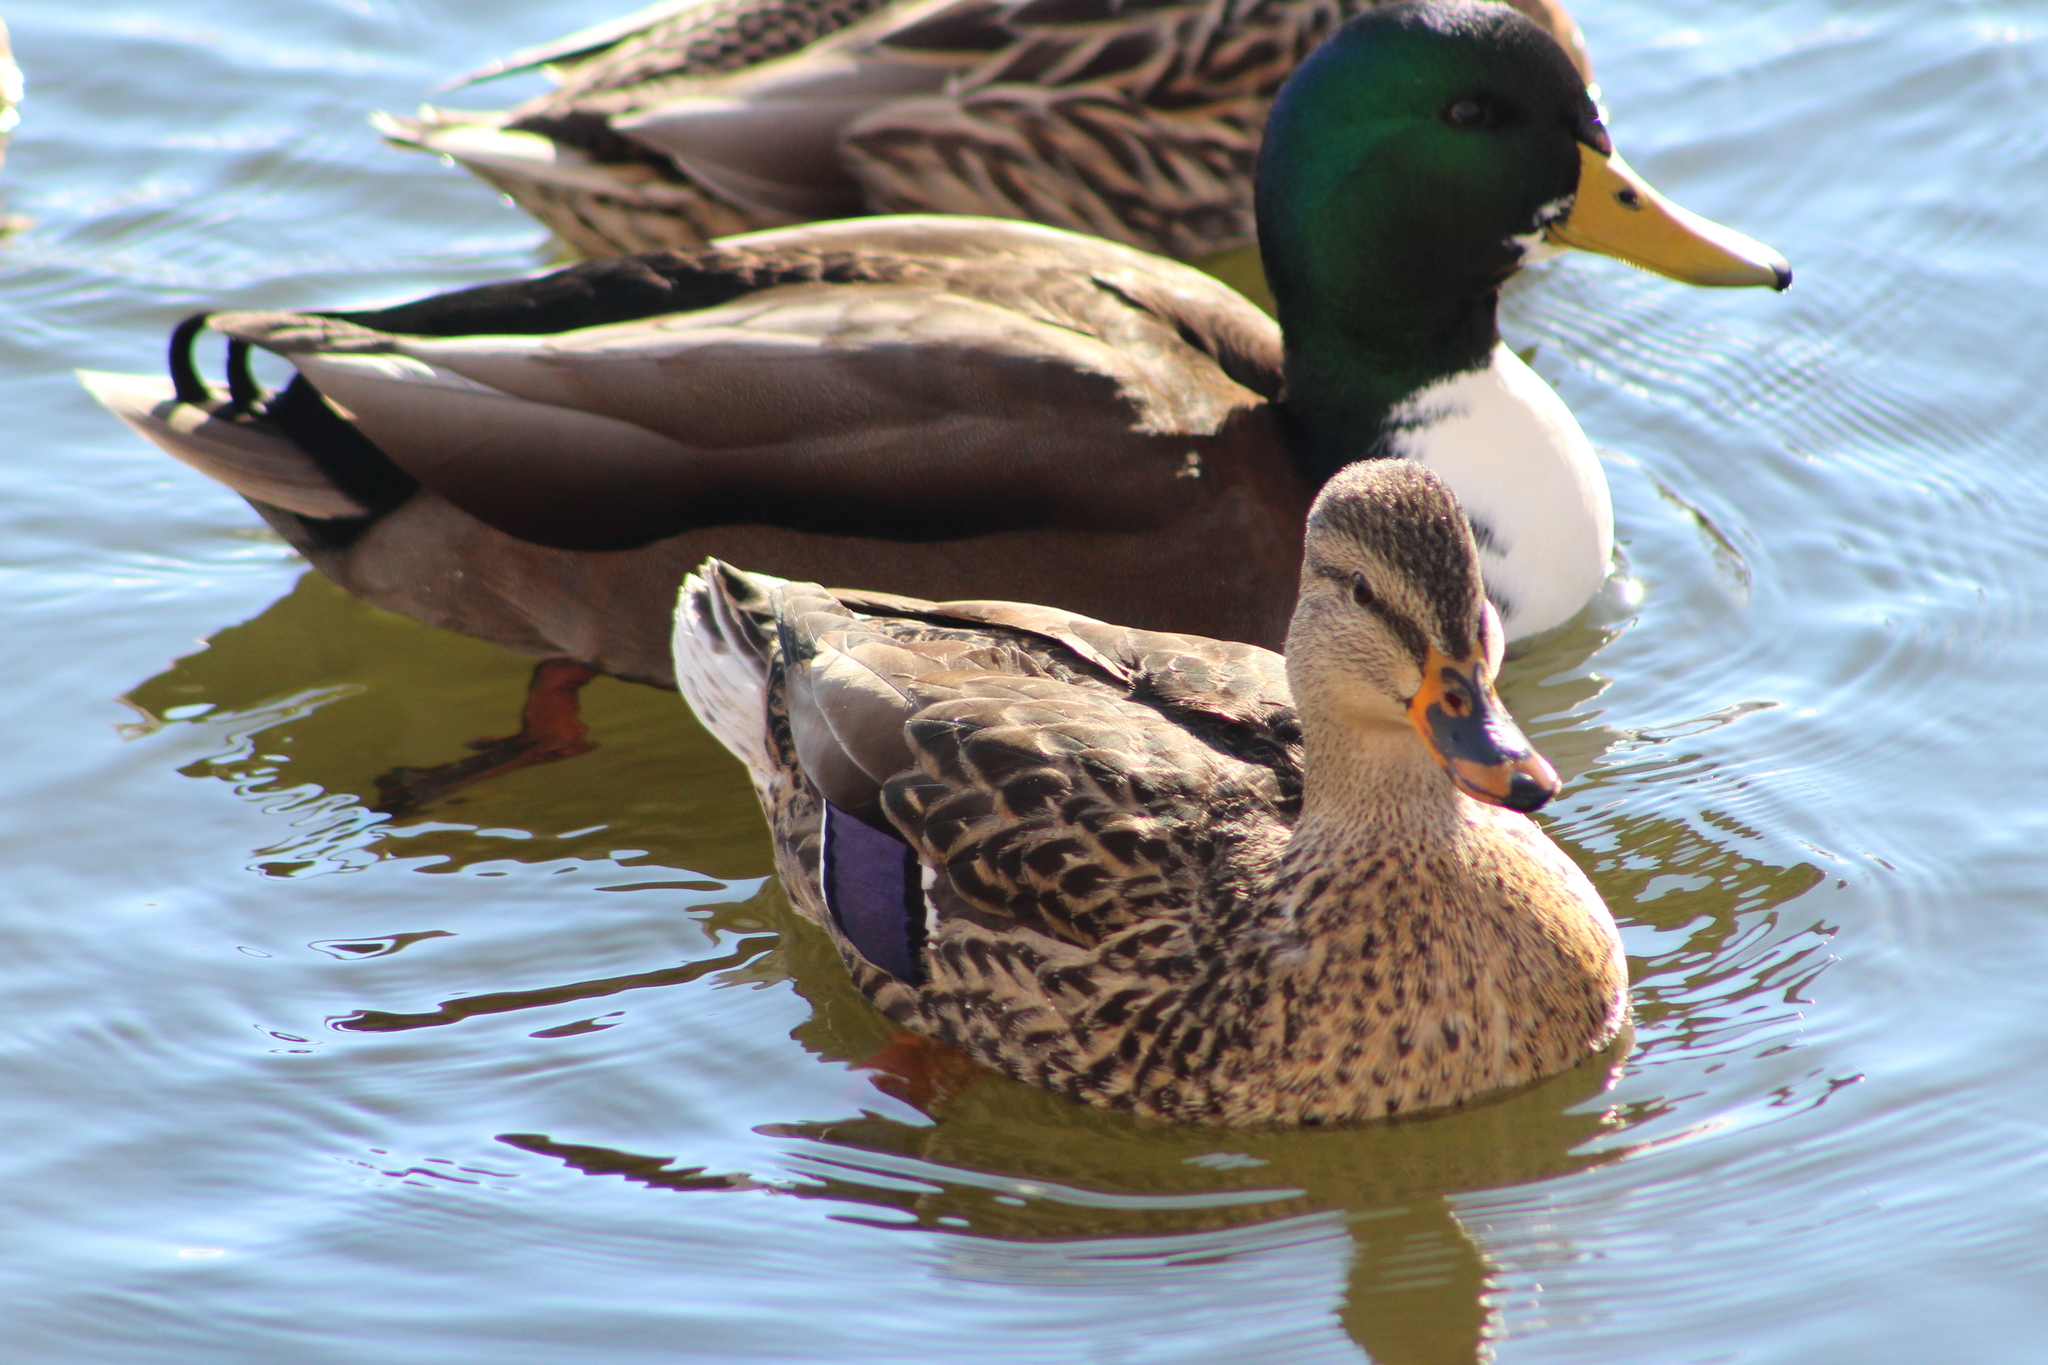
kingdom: Animalia
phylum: Chordata
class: Aves
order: Anseriformes
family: Anatidae
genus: Anas
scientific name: Anas platyrhynchos
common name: Mallard
